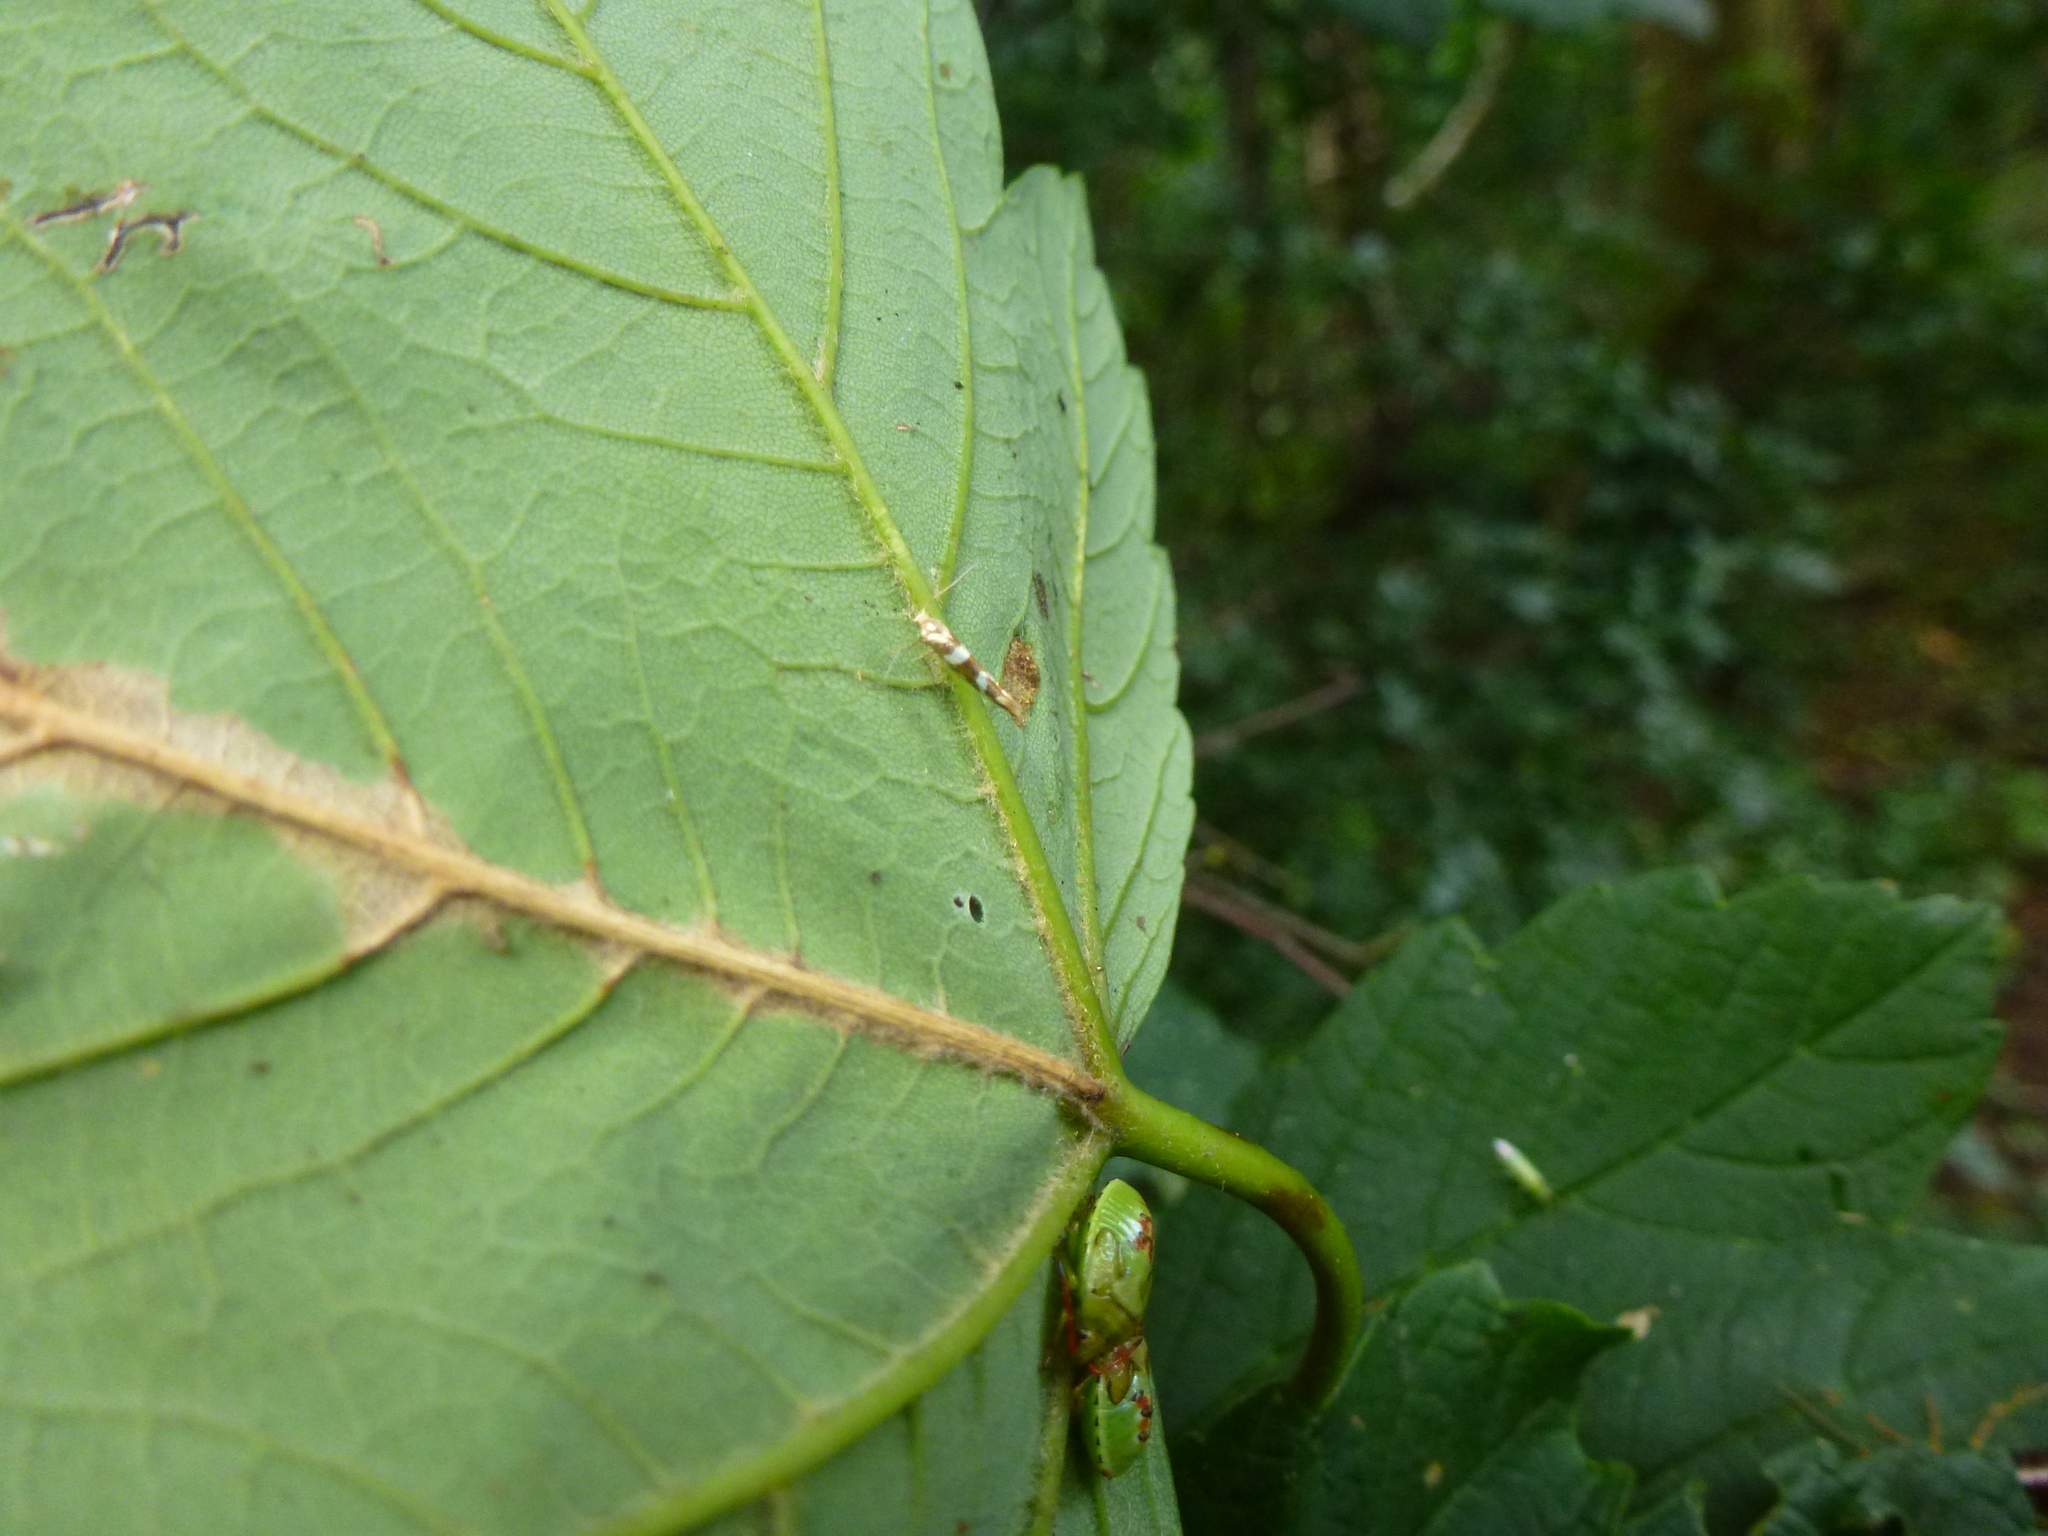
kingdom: Animalia
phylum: Arthropoda
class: Insecta
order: Lepidoptera
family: Argyresthiidae
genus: Argyresthia
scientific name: Argyresthia goedartella
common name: Golden argent
